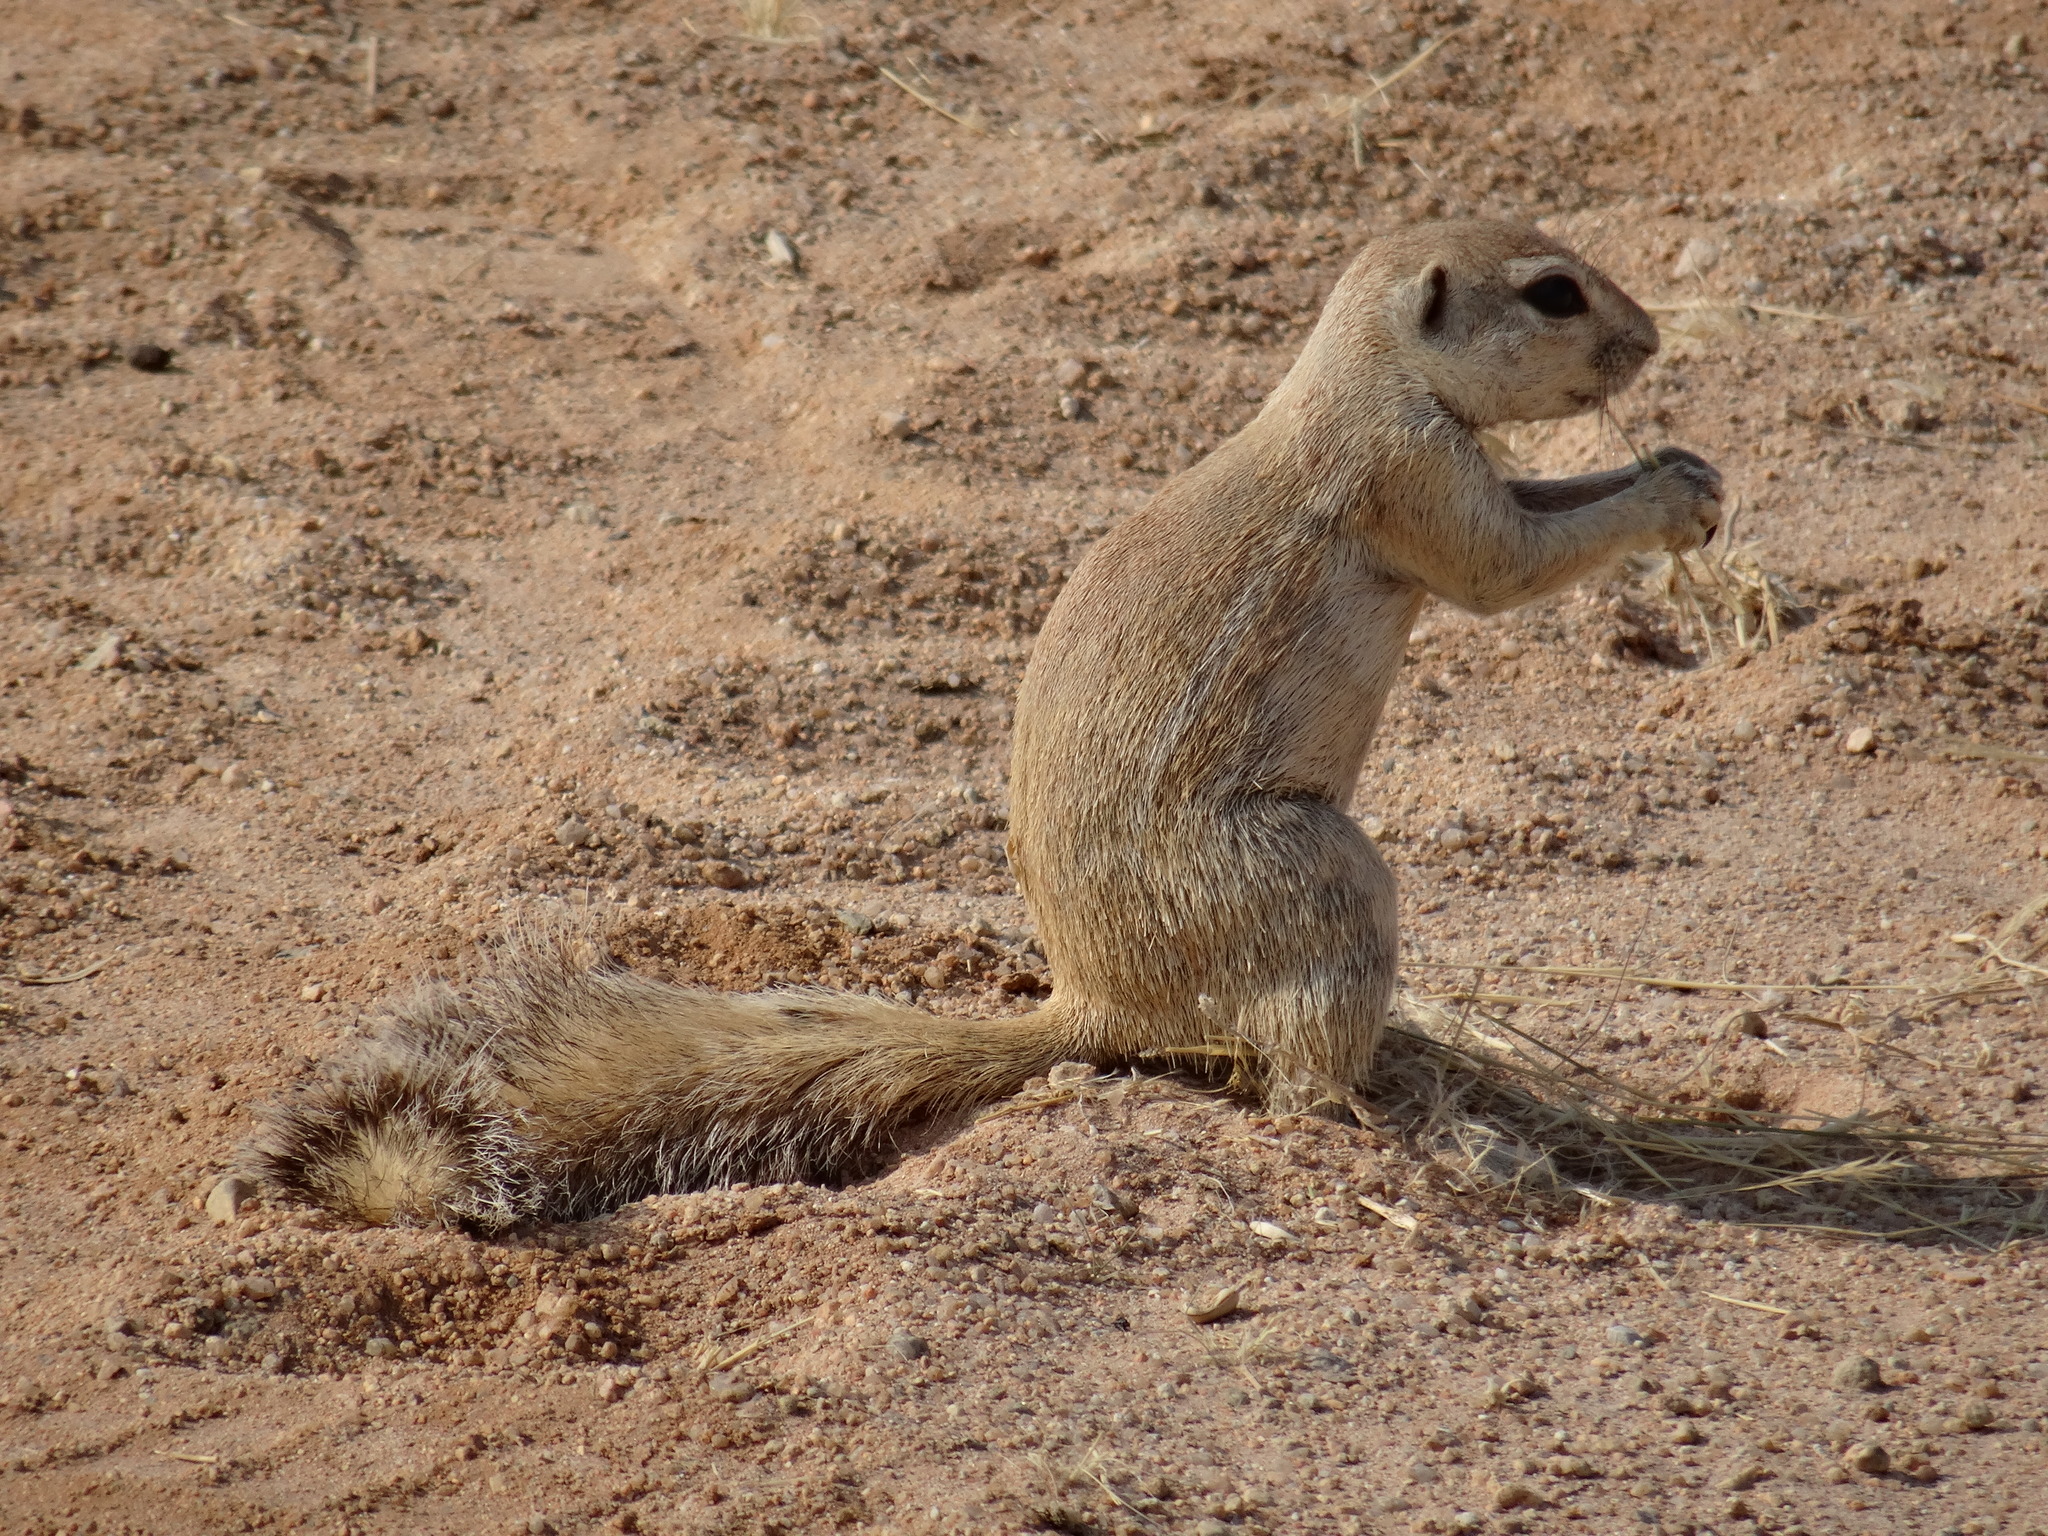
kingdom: Animalia
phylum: Chordata
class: Mammalia
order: Rodentia
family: Sciuridae
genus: Xerus
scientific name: Xerus inauris
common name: South african ground squirrel
